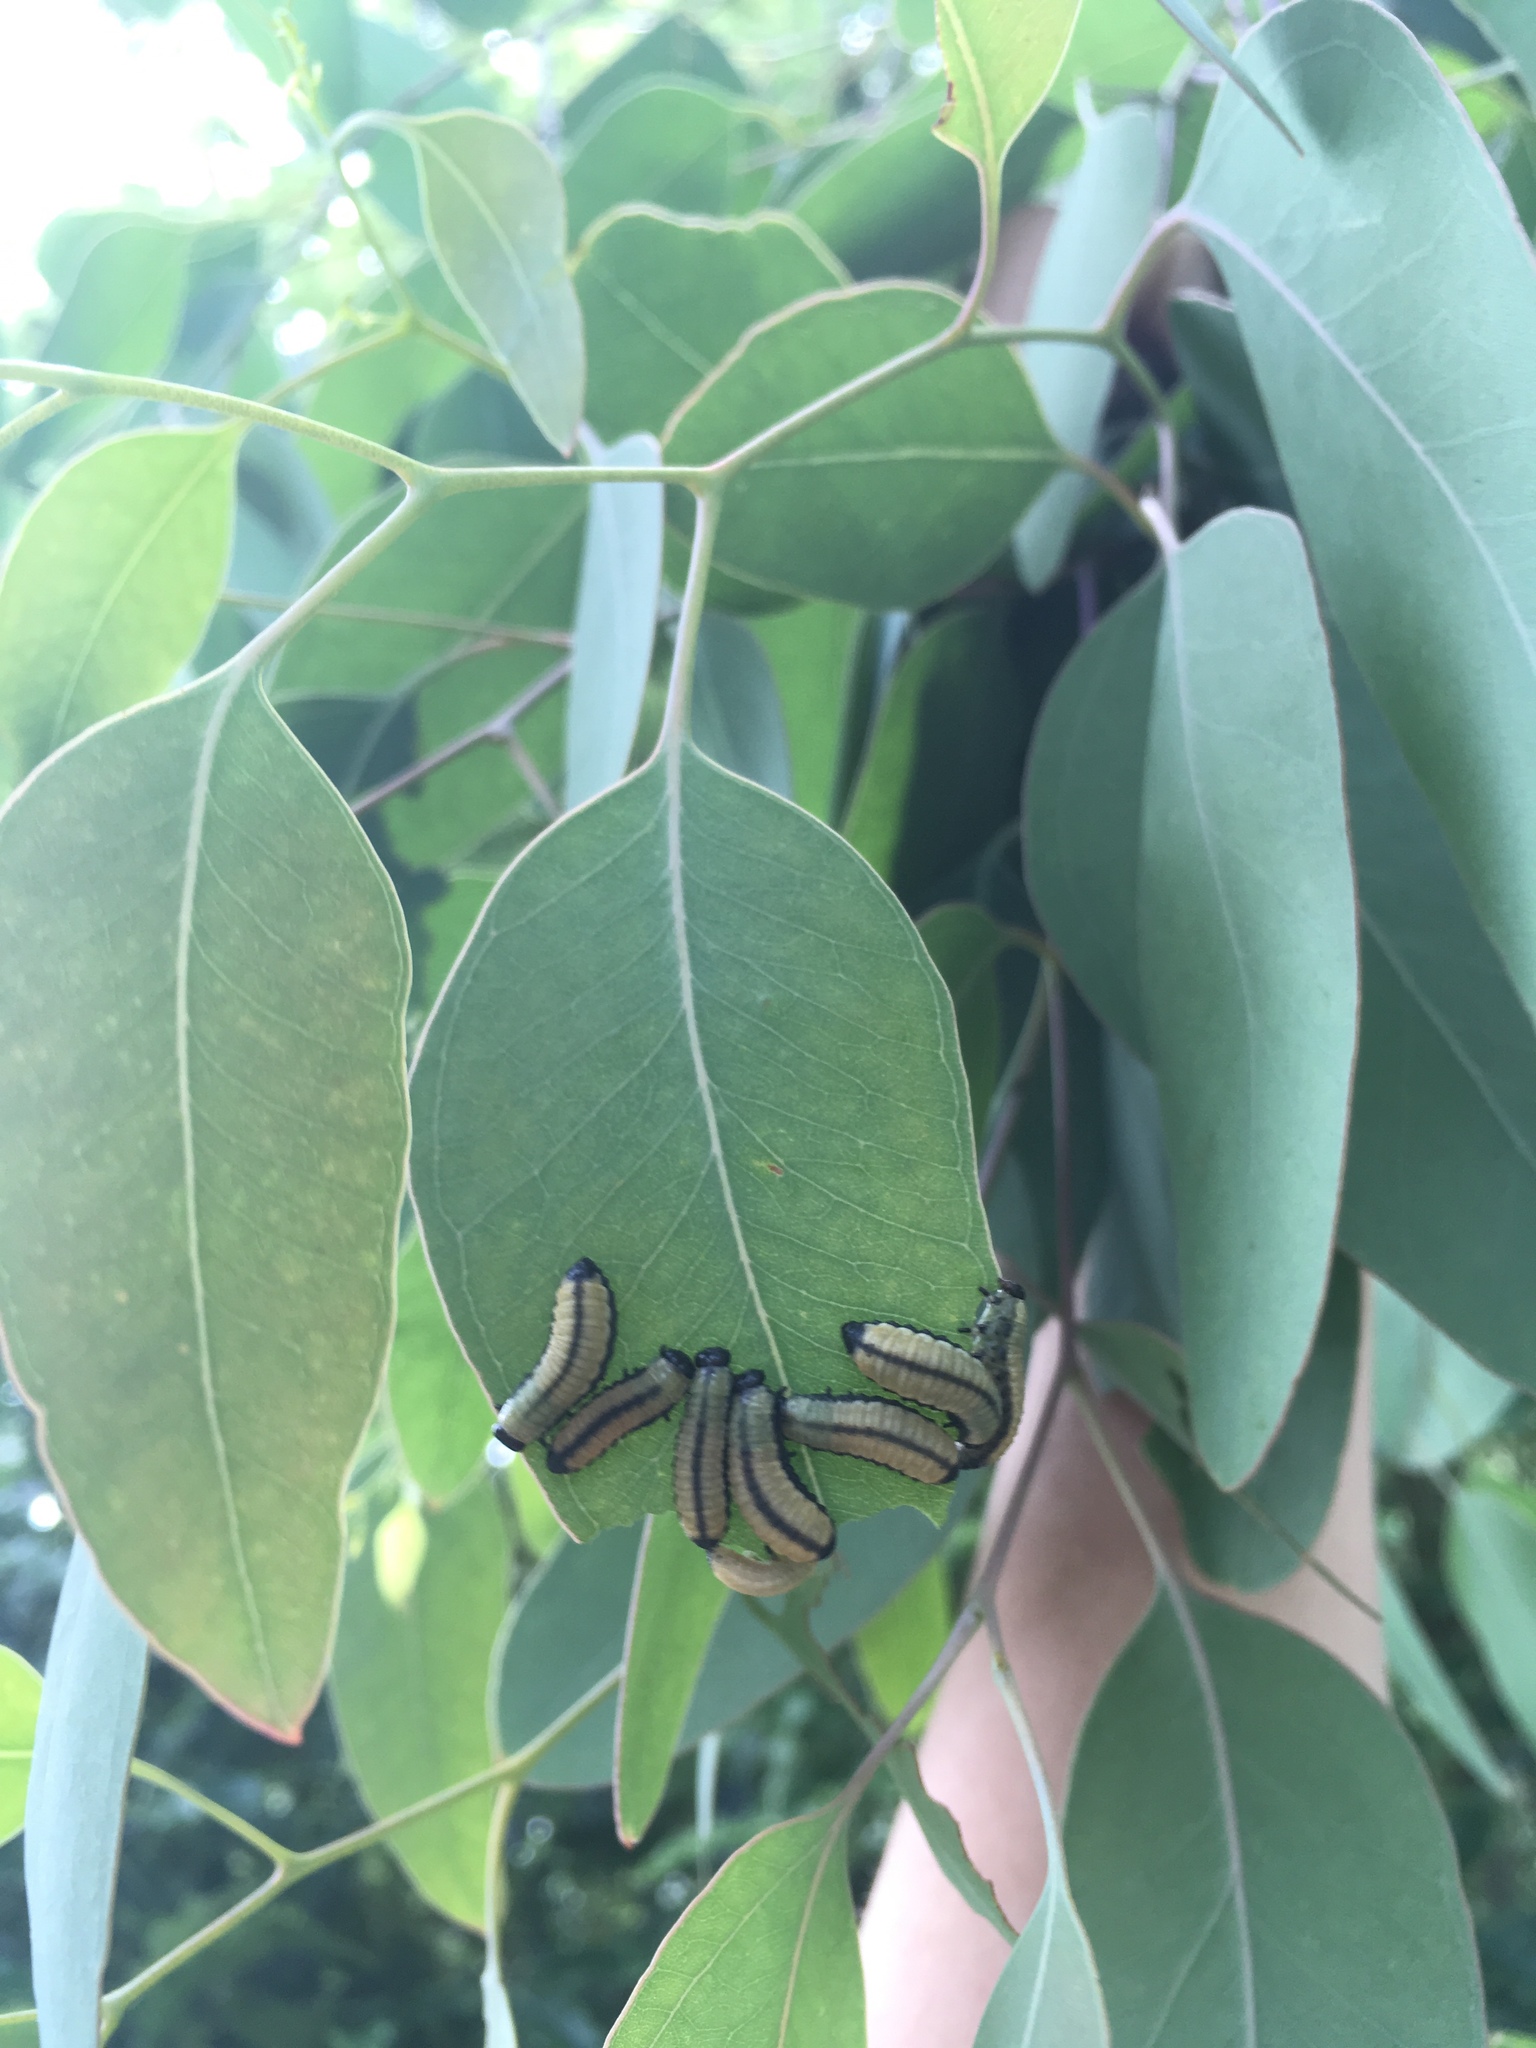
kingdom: Animalia
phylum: Arthropoda
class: Insecta
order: Coleoptera
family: Chrysomelidae
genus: Paropsisterna
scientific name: Paropsisterna cloelia
